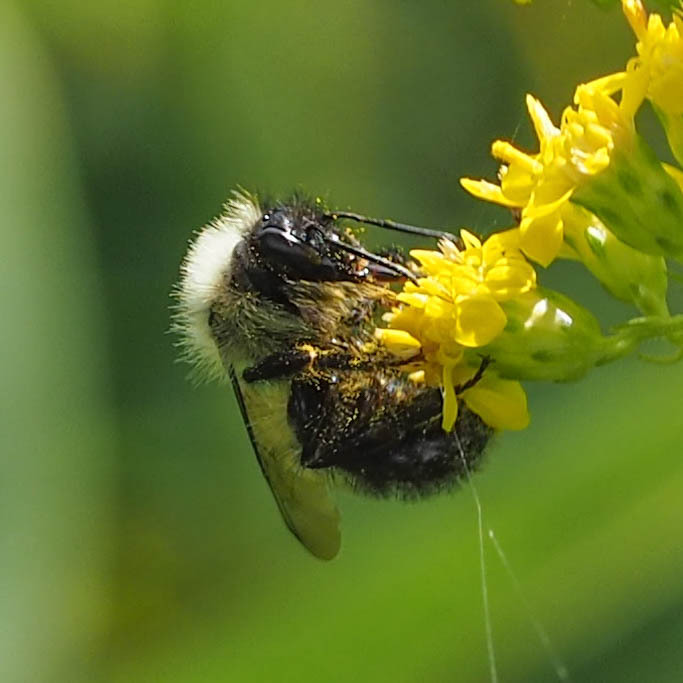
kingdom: Animalia
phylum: Arthropoda
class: Insecta
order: Hymenoptera
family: Apidae
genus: Bombus
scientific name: Bombus vagans
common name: Half-black bumble bee
